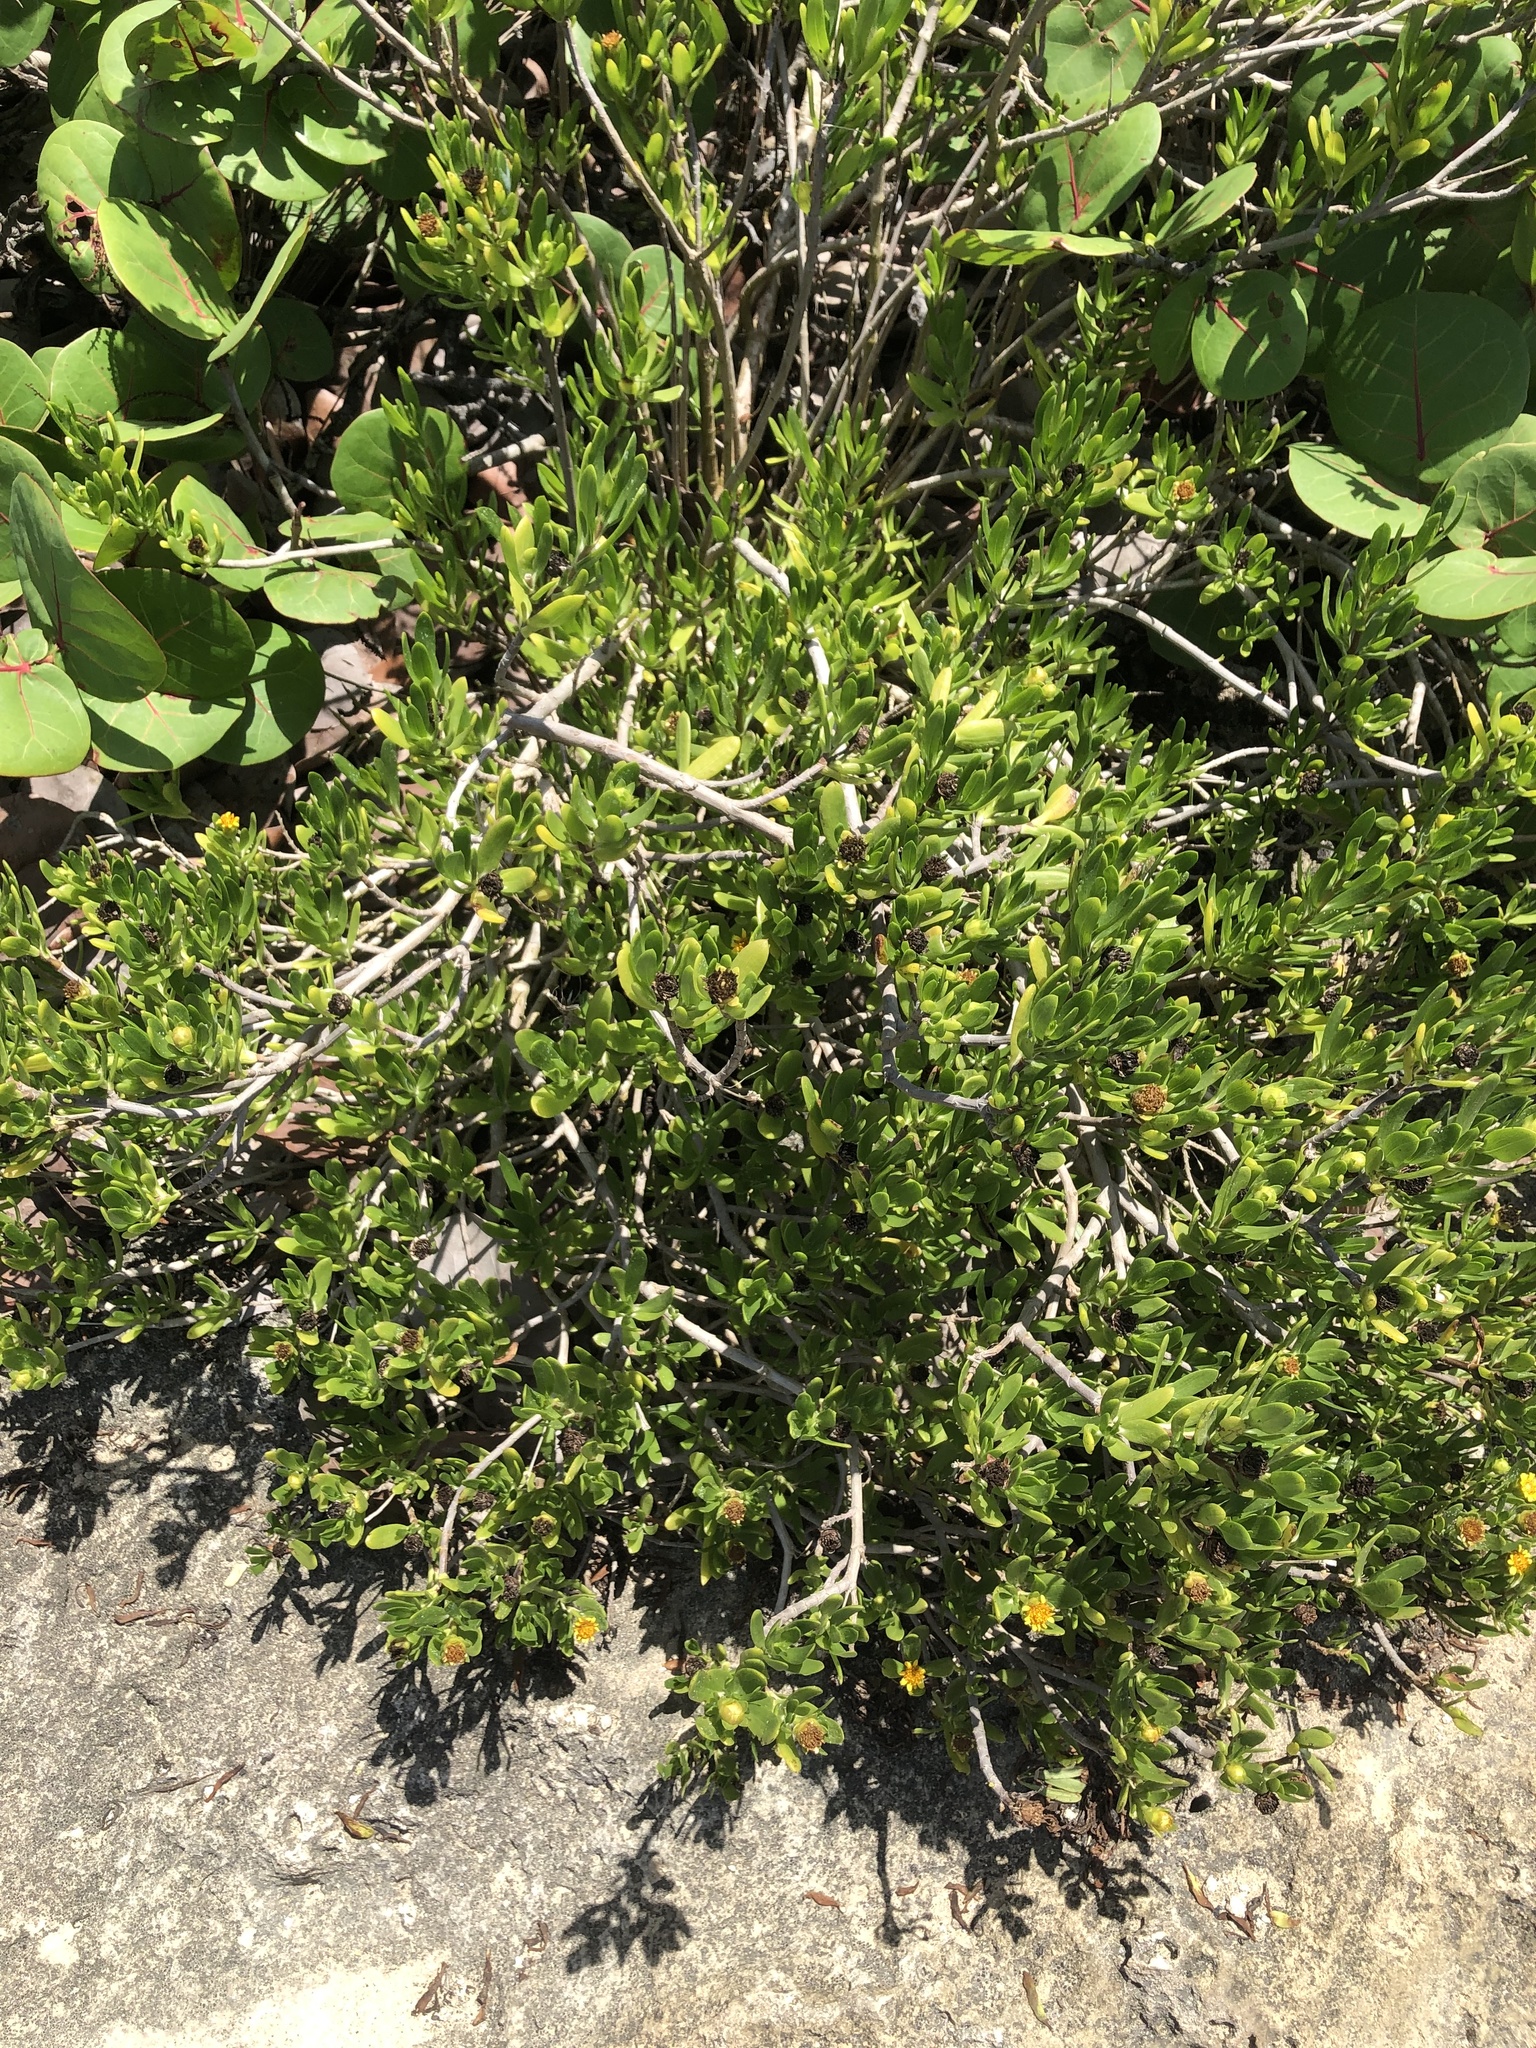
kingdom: Plantae
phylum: Tracheophyta
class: Magnoliopsida
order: Asterales
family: Asteraceae
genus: Borrichia
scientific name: Borrichia arborescens
